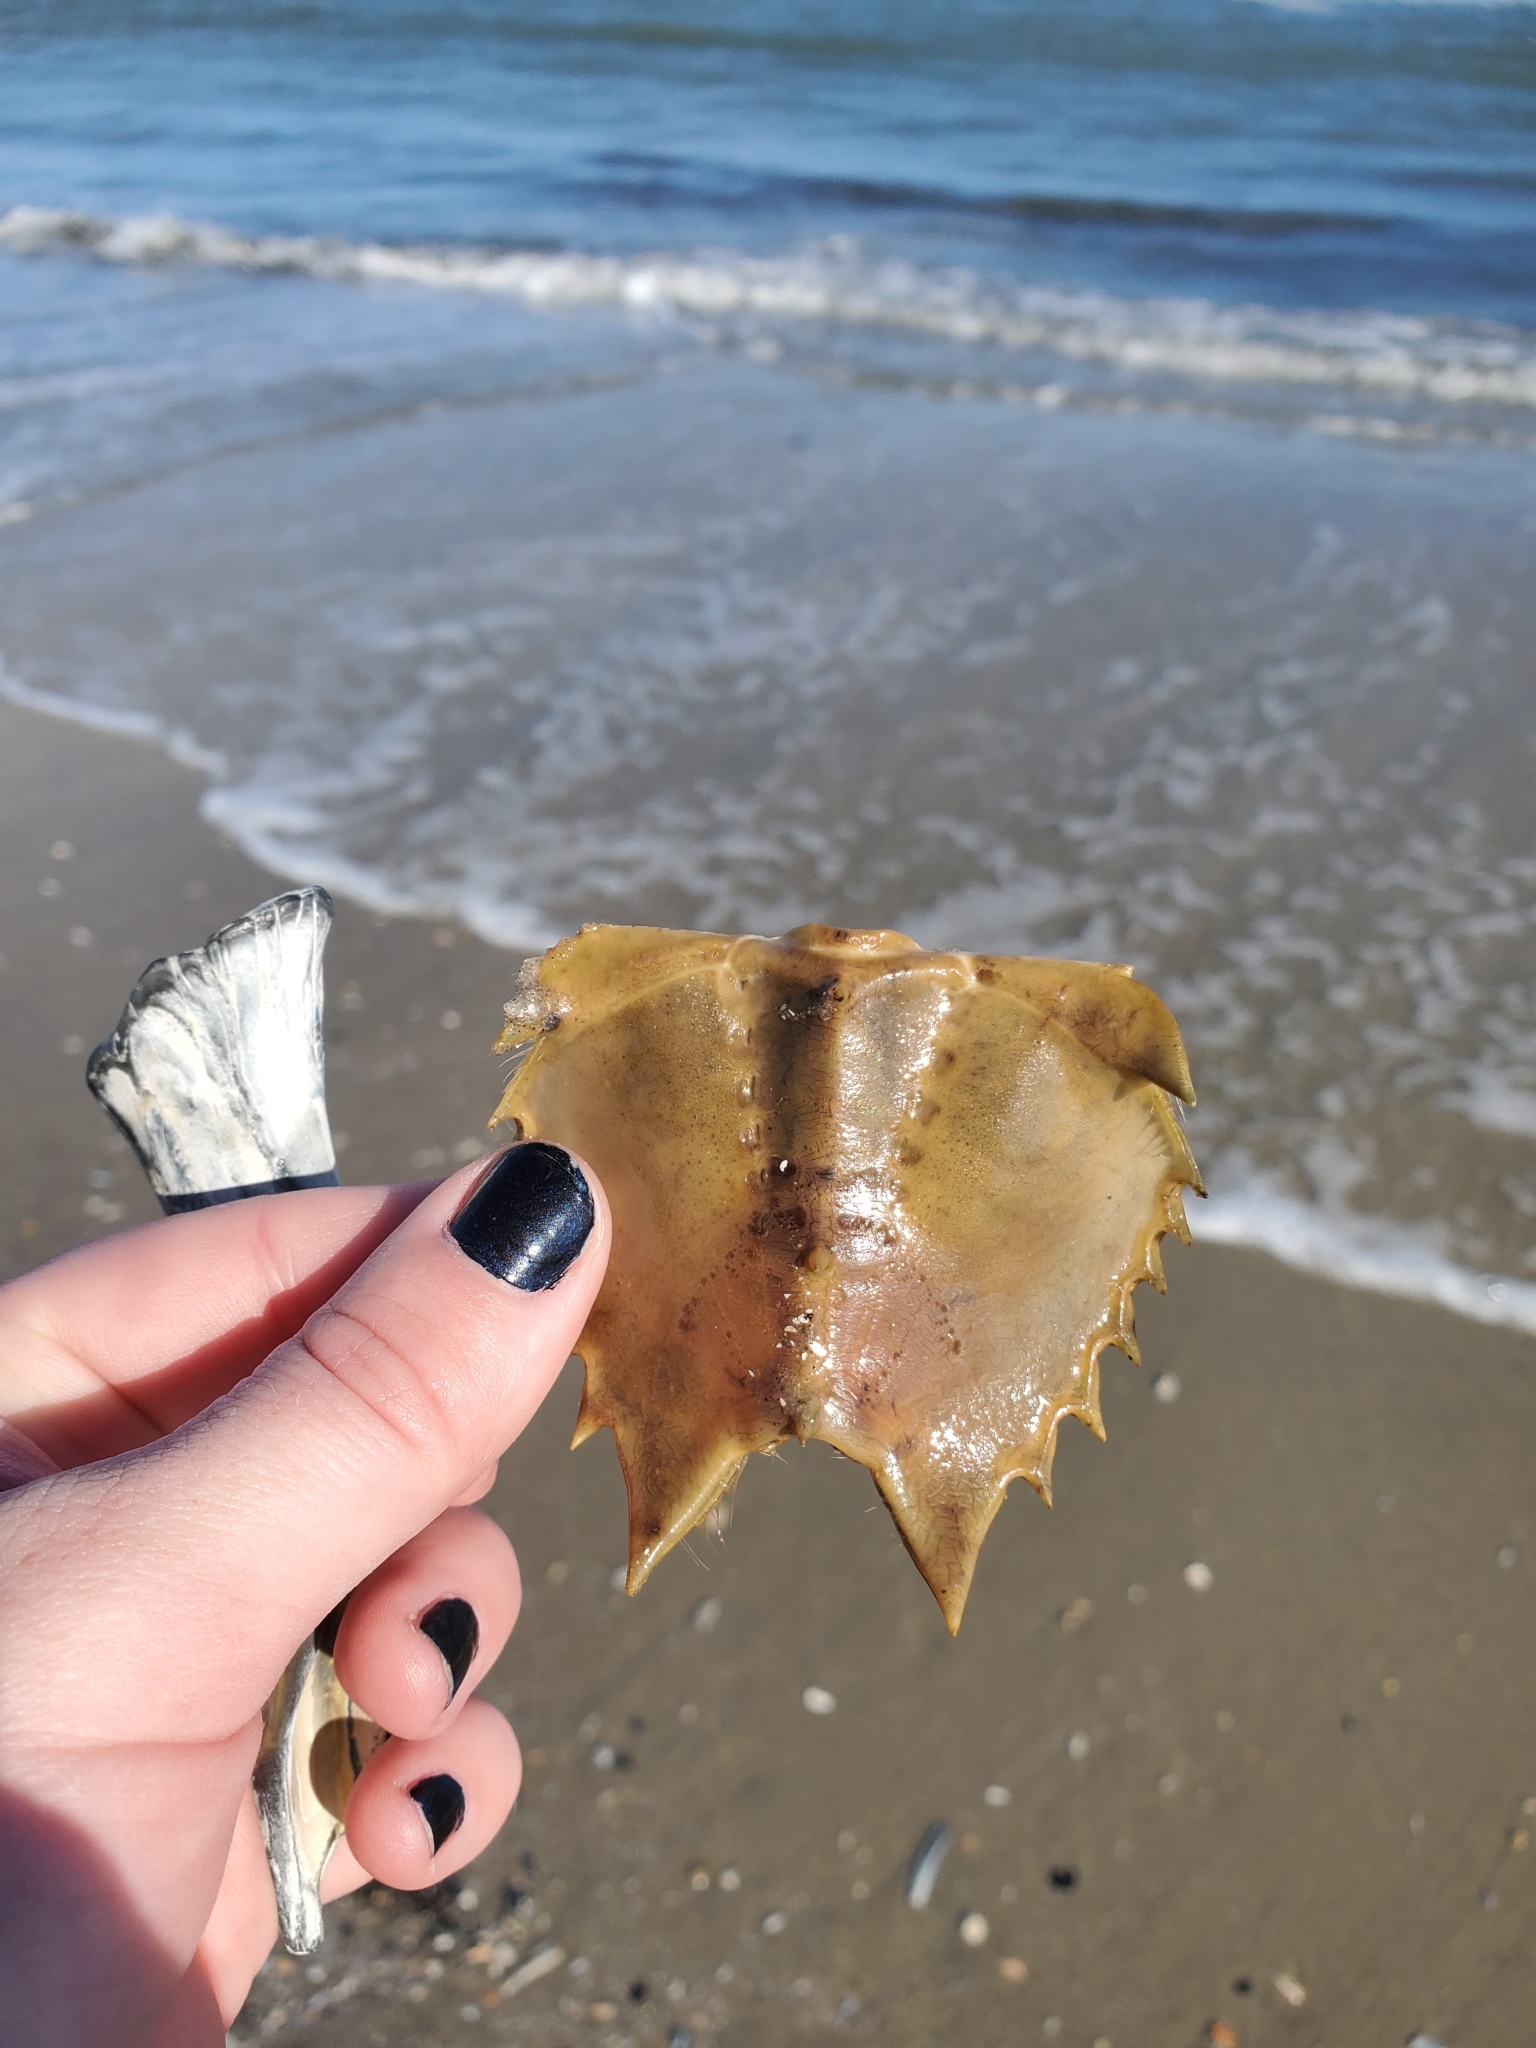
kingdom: Animalia
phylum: Arthropoda
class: Merostomata
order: Xiphosurida
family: Limulidae
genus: Limulus
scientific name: Limulus polyphemus
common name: Horseshoe crab
